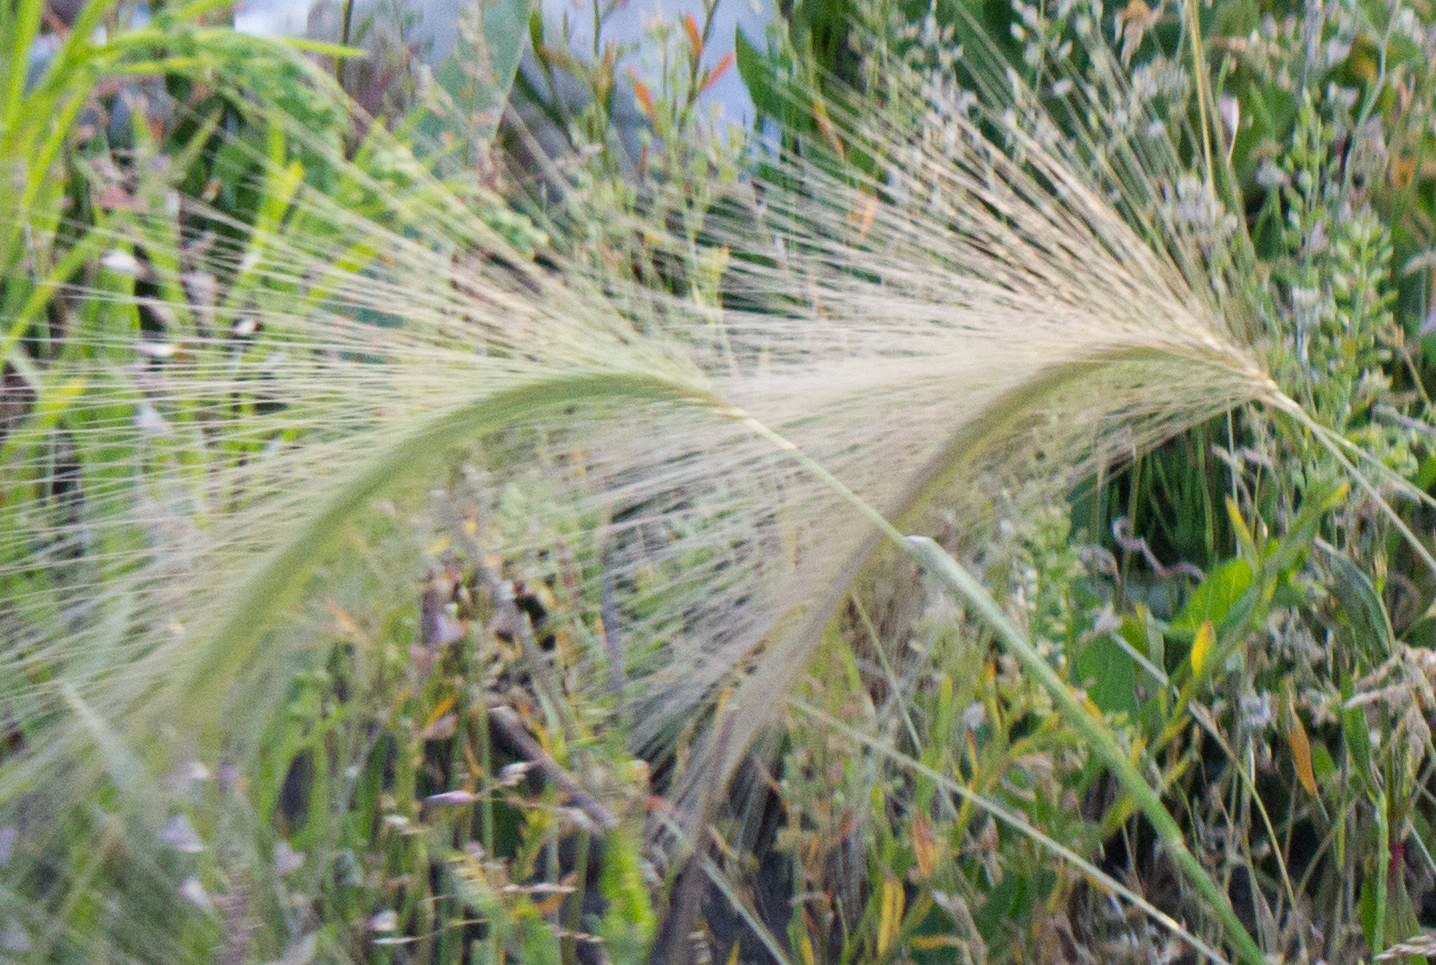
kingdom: Plantae
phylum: Tracheophyta
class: Liliopsida
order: Poales
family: Poaceae
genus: Hordeum
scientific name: Hordeum jubatum
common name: Foxtail barley
